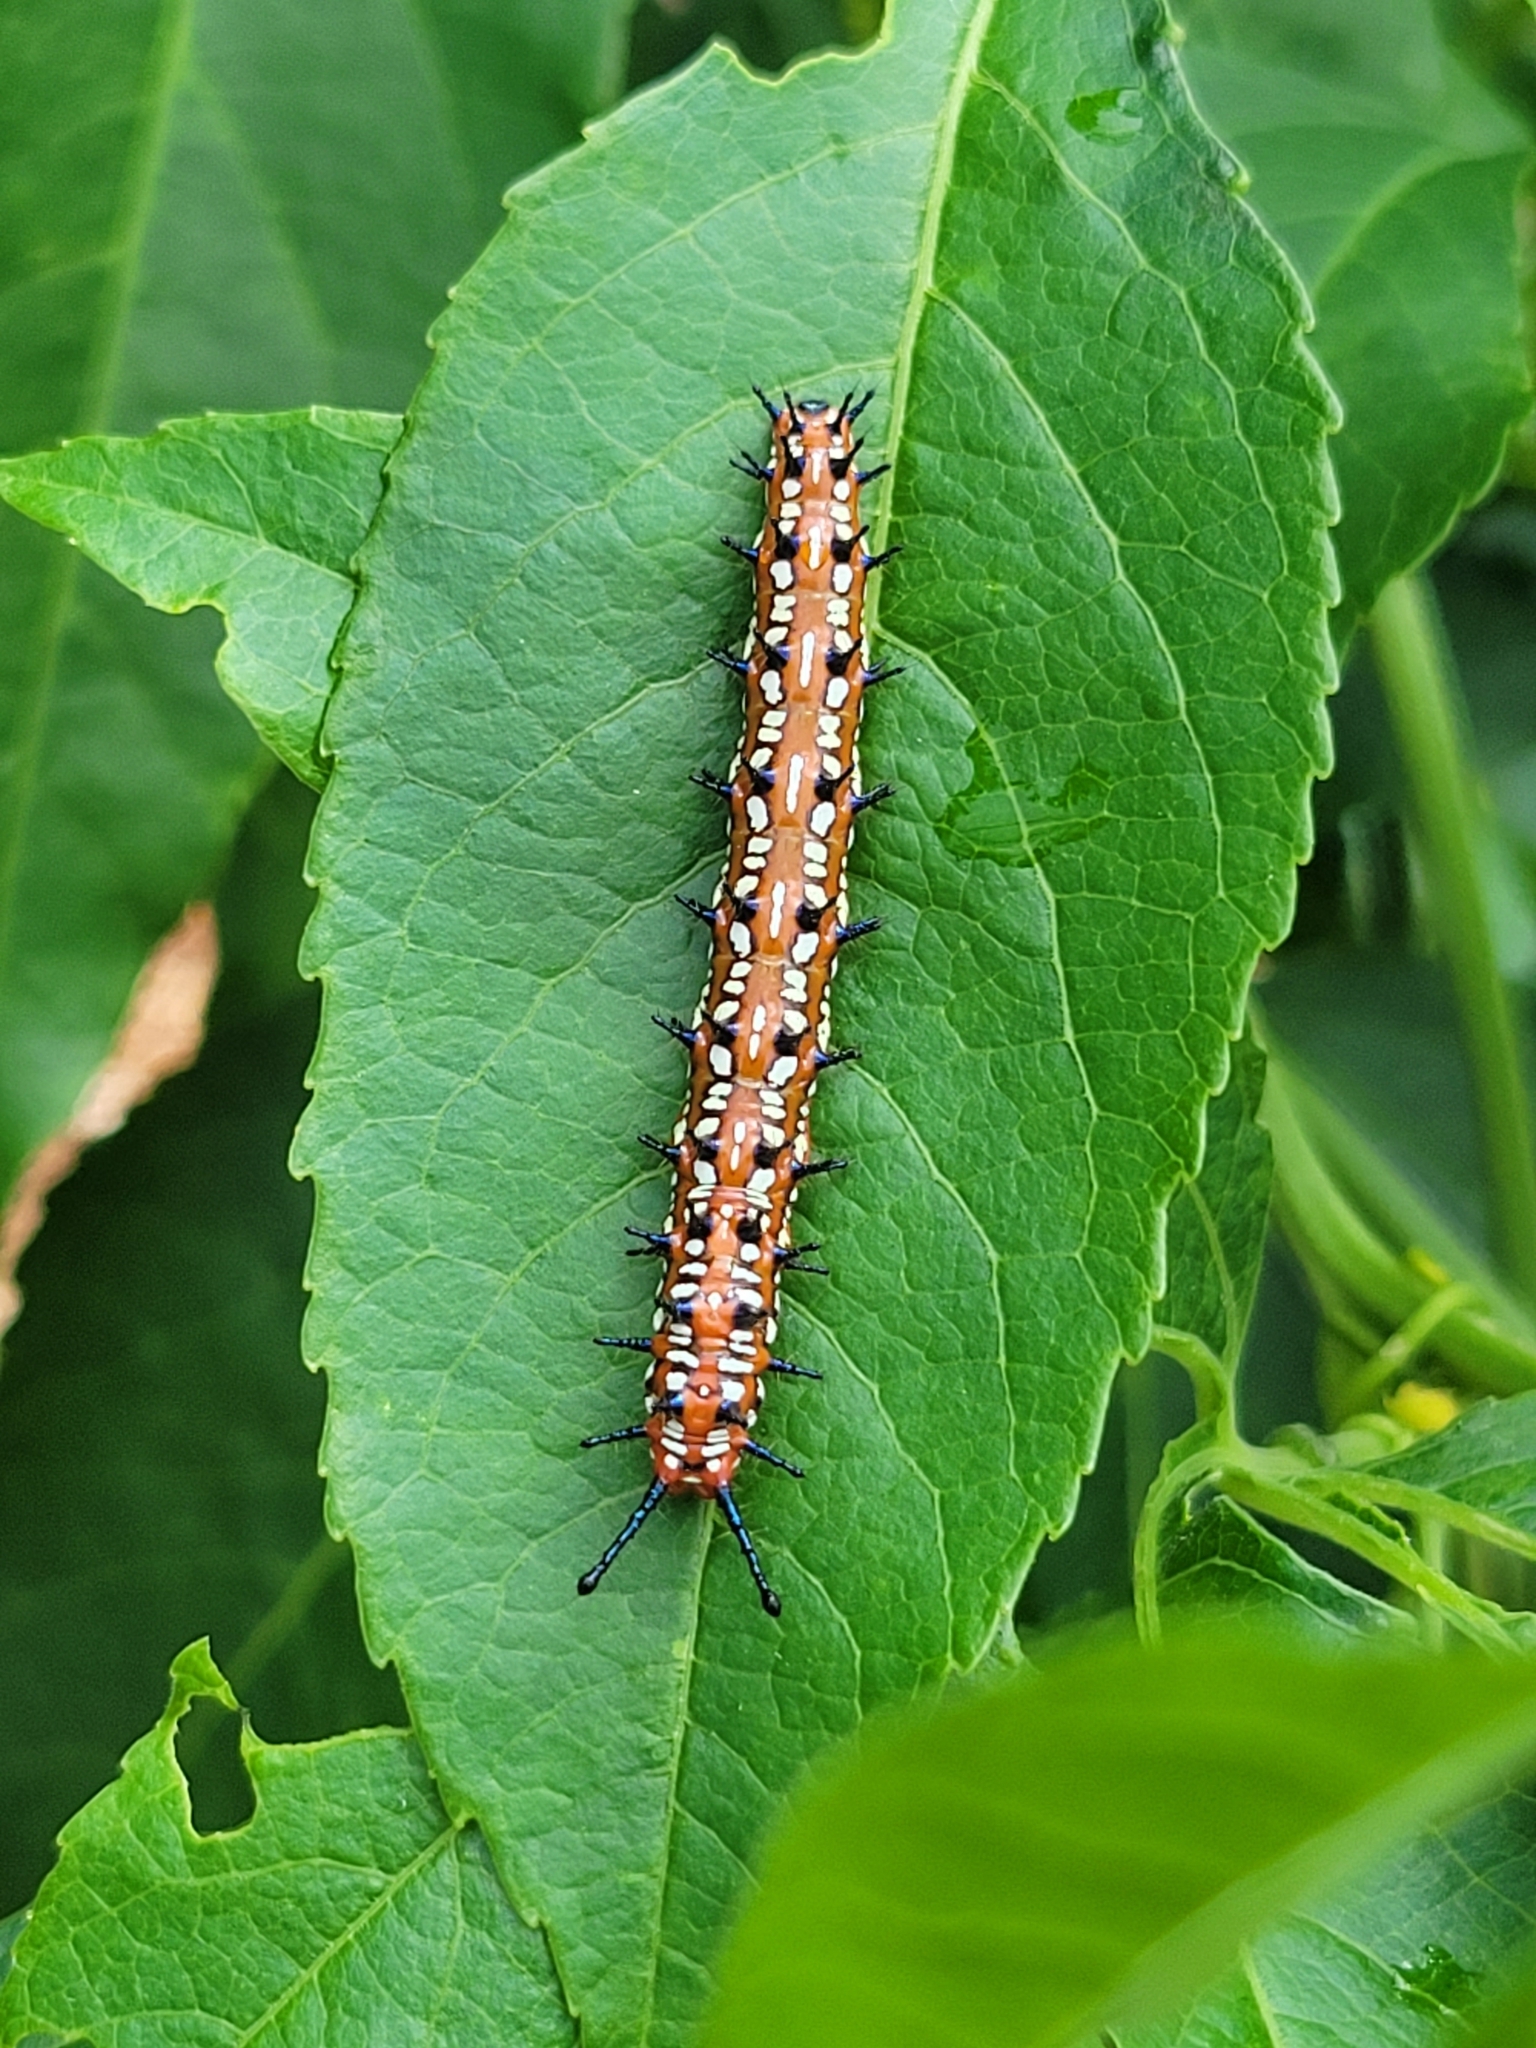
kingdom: Animalia
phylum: Arthropoda
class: Insecta
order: Lepidoptera
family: Nymphalidae
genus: Euptoieta
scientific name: Euptoieta claudia
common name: Variegated fritillary
